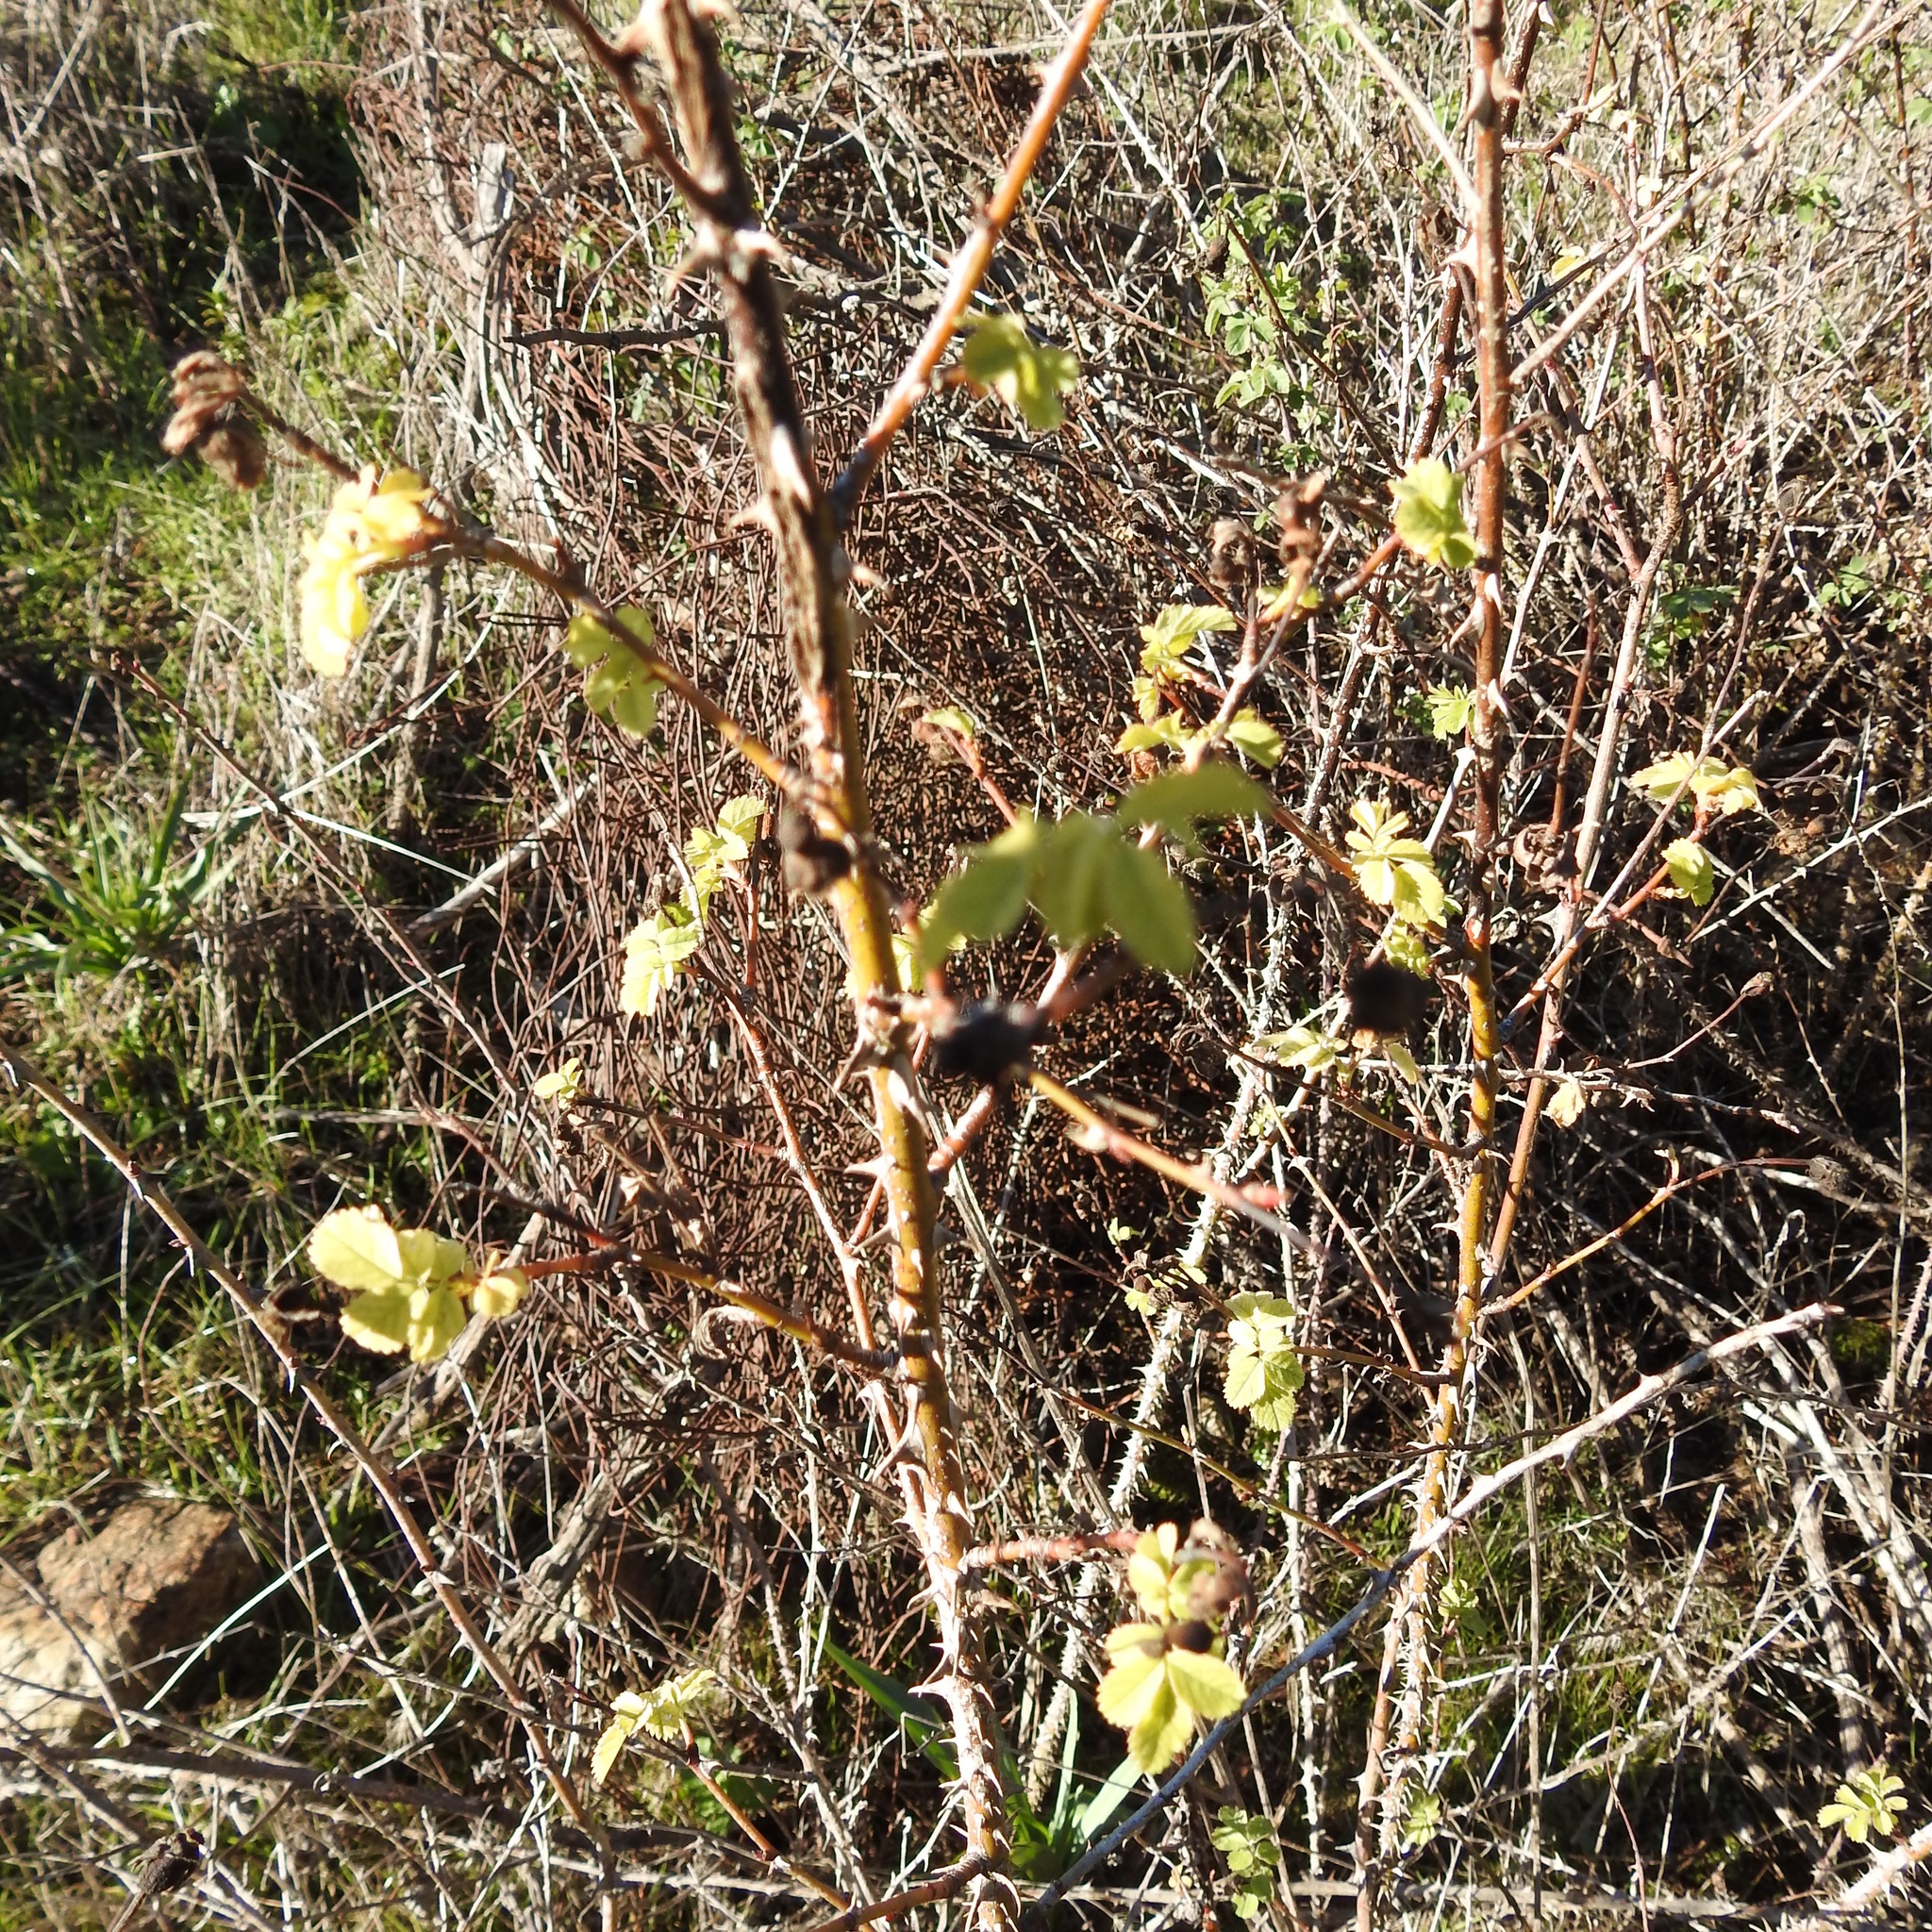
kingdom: Plantae
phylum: Tracheophyta
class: Magnoliopsida
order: Rosales
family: Rosaceae
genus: Rosa
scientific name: Rosa californica
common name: California rose
